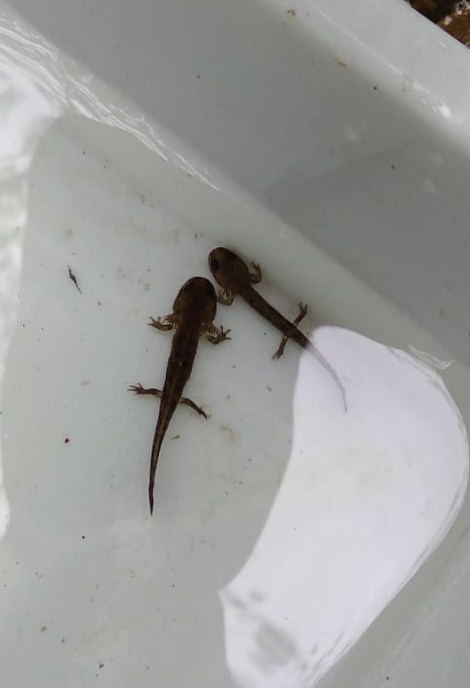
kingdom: Animalia
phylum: Chordata
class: Amphibia
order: Caudata
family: Salamandridae
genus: Salamandra
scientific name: Salamandra salamandra
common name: Fire salamander
